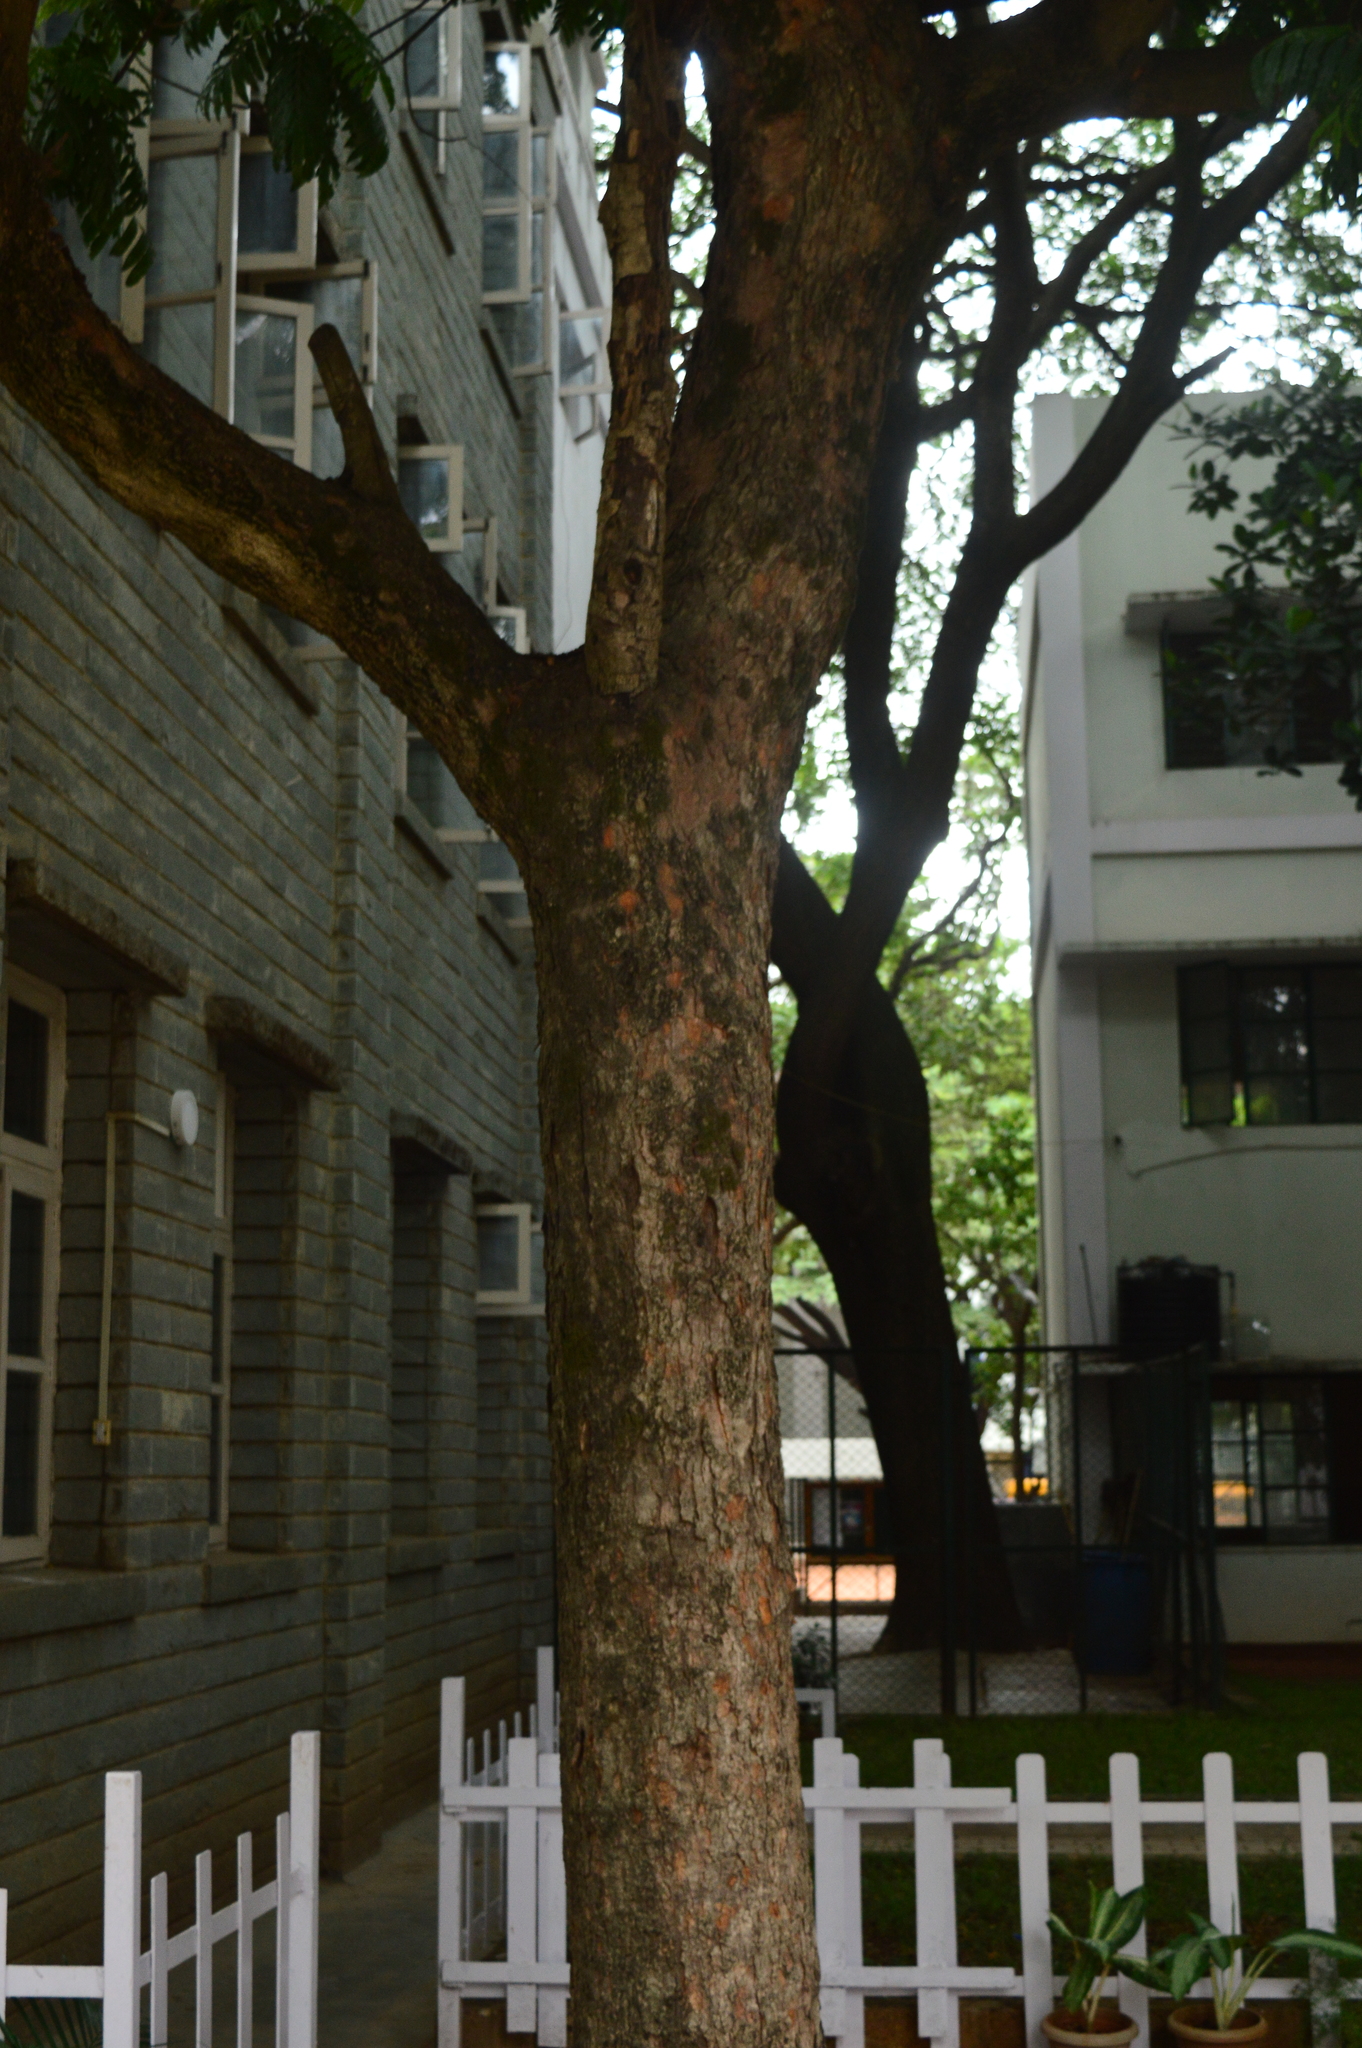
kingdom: Plantae
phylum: Tracheophyta
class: Magnoliopsida
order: Sapindales
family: Sapindaceae
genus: Filicium
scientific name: Filicium decipiens
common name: Ferntree
